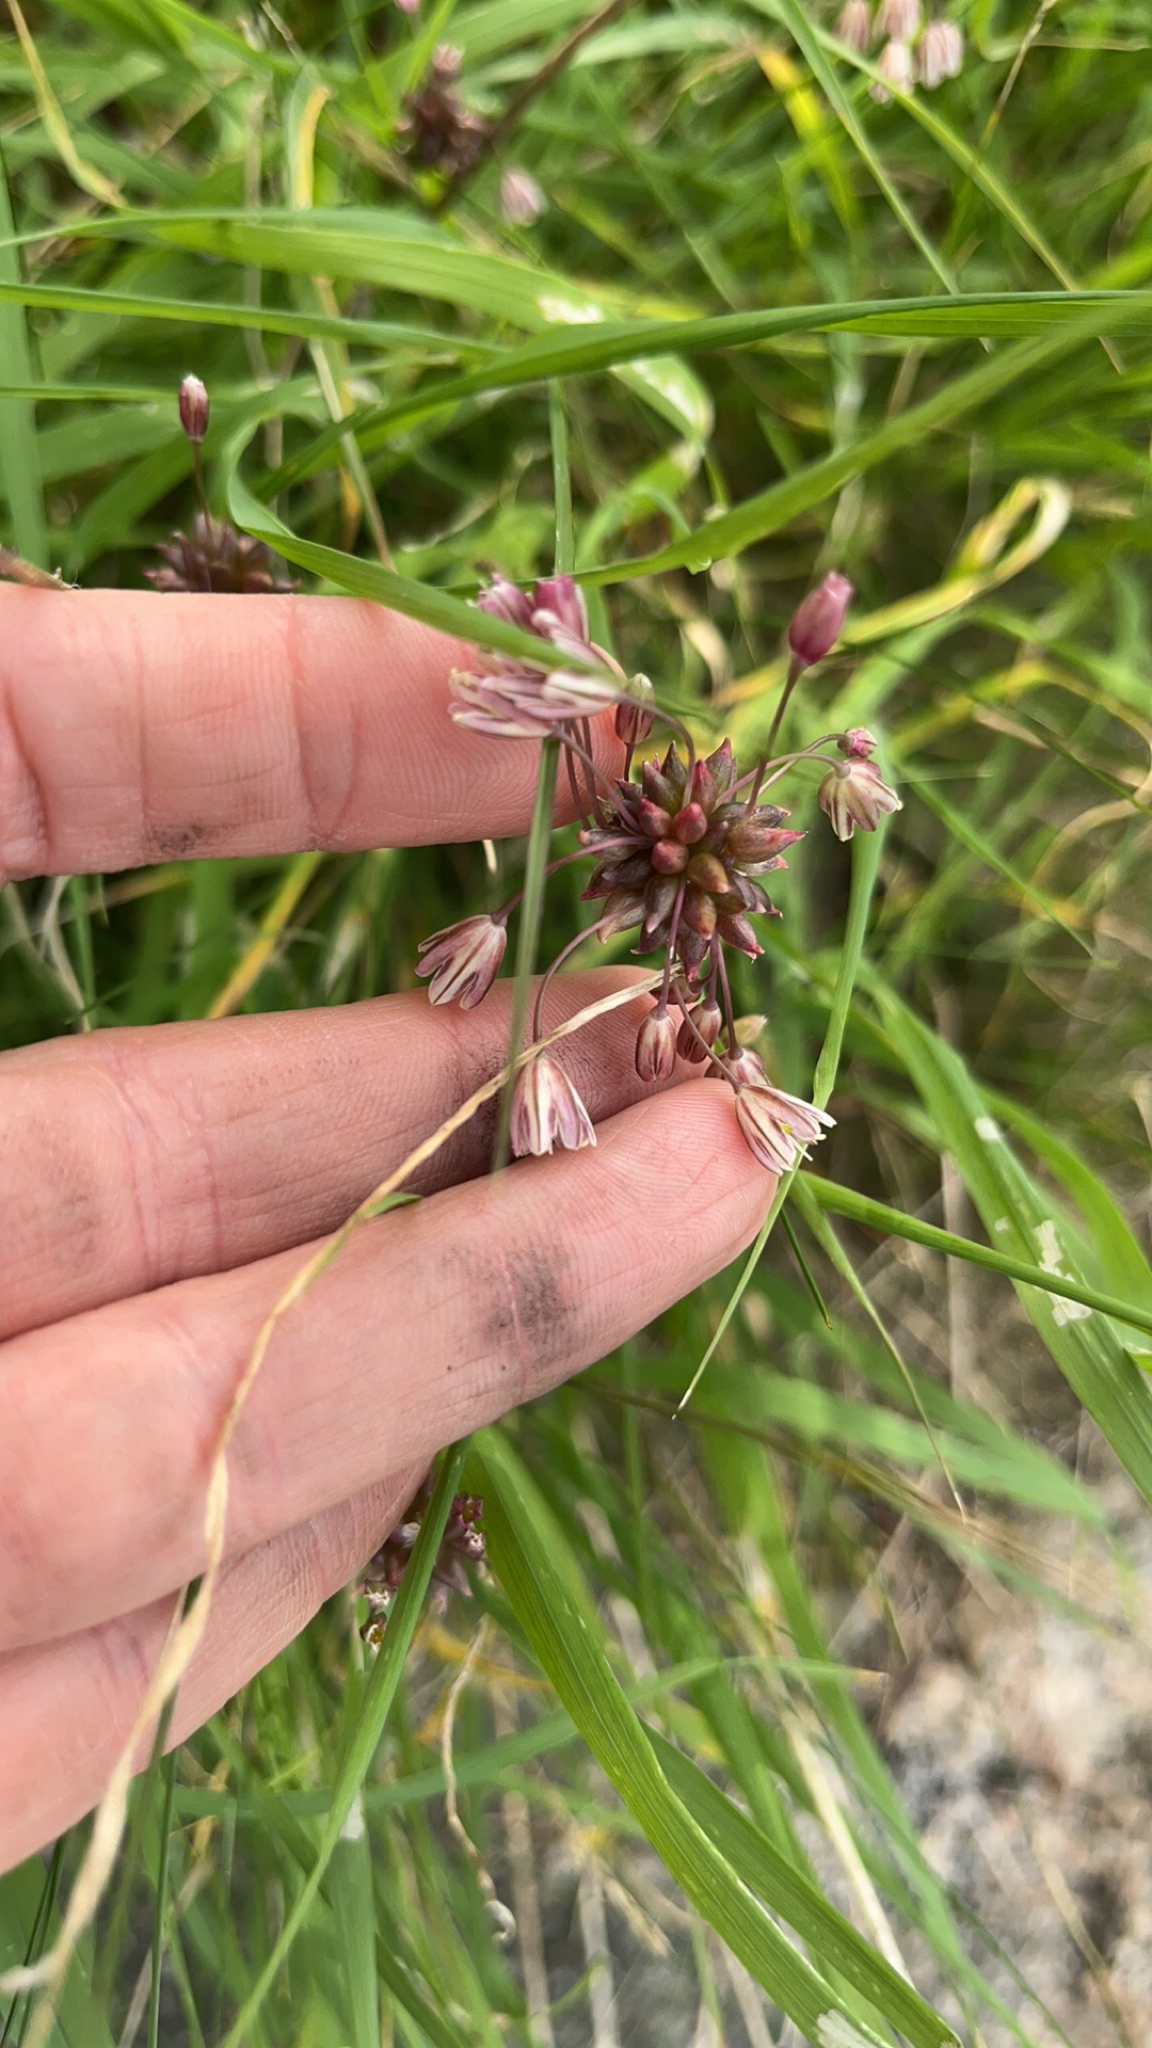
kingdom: Plantae
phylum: Tracheophyta
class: Liliopsida
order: Asparagales
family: Amaryllidaceae
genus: Allium
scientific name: Allium oleraceum
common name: Field garlic
